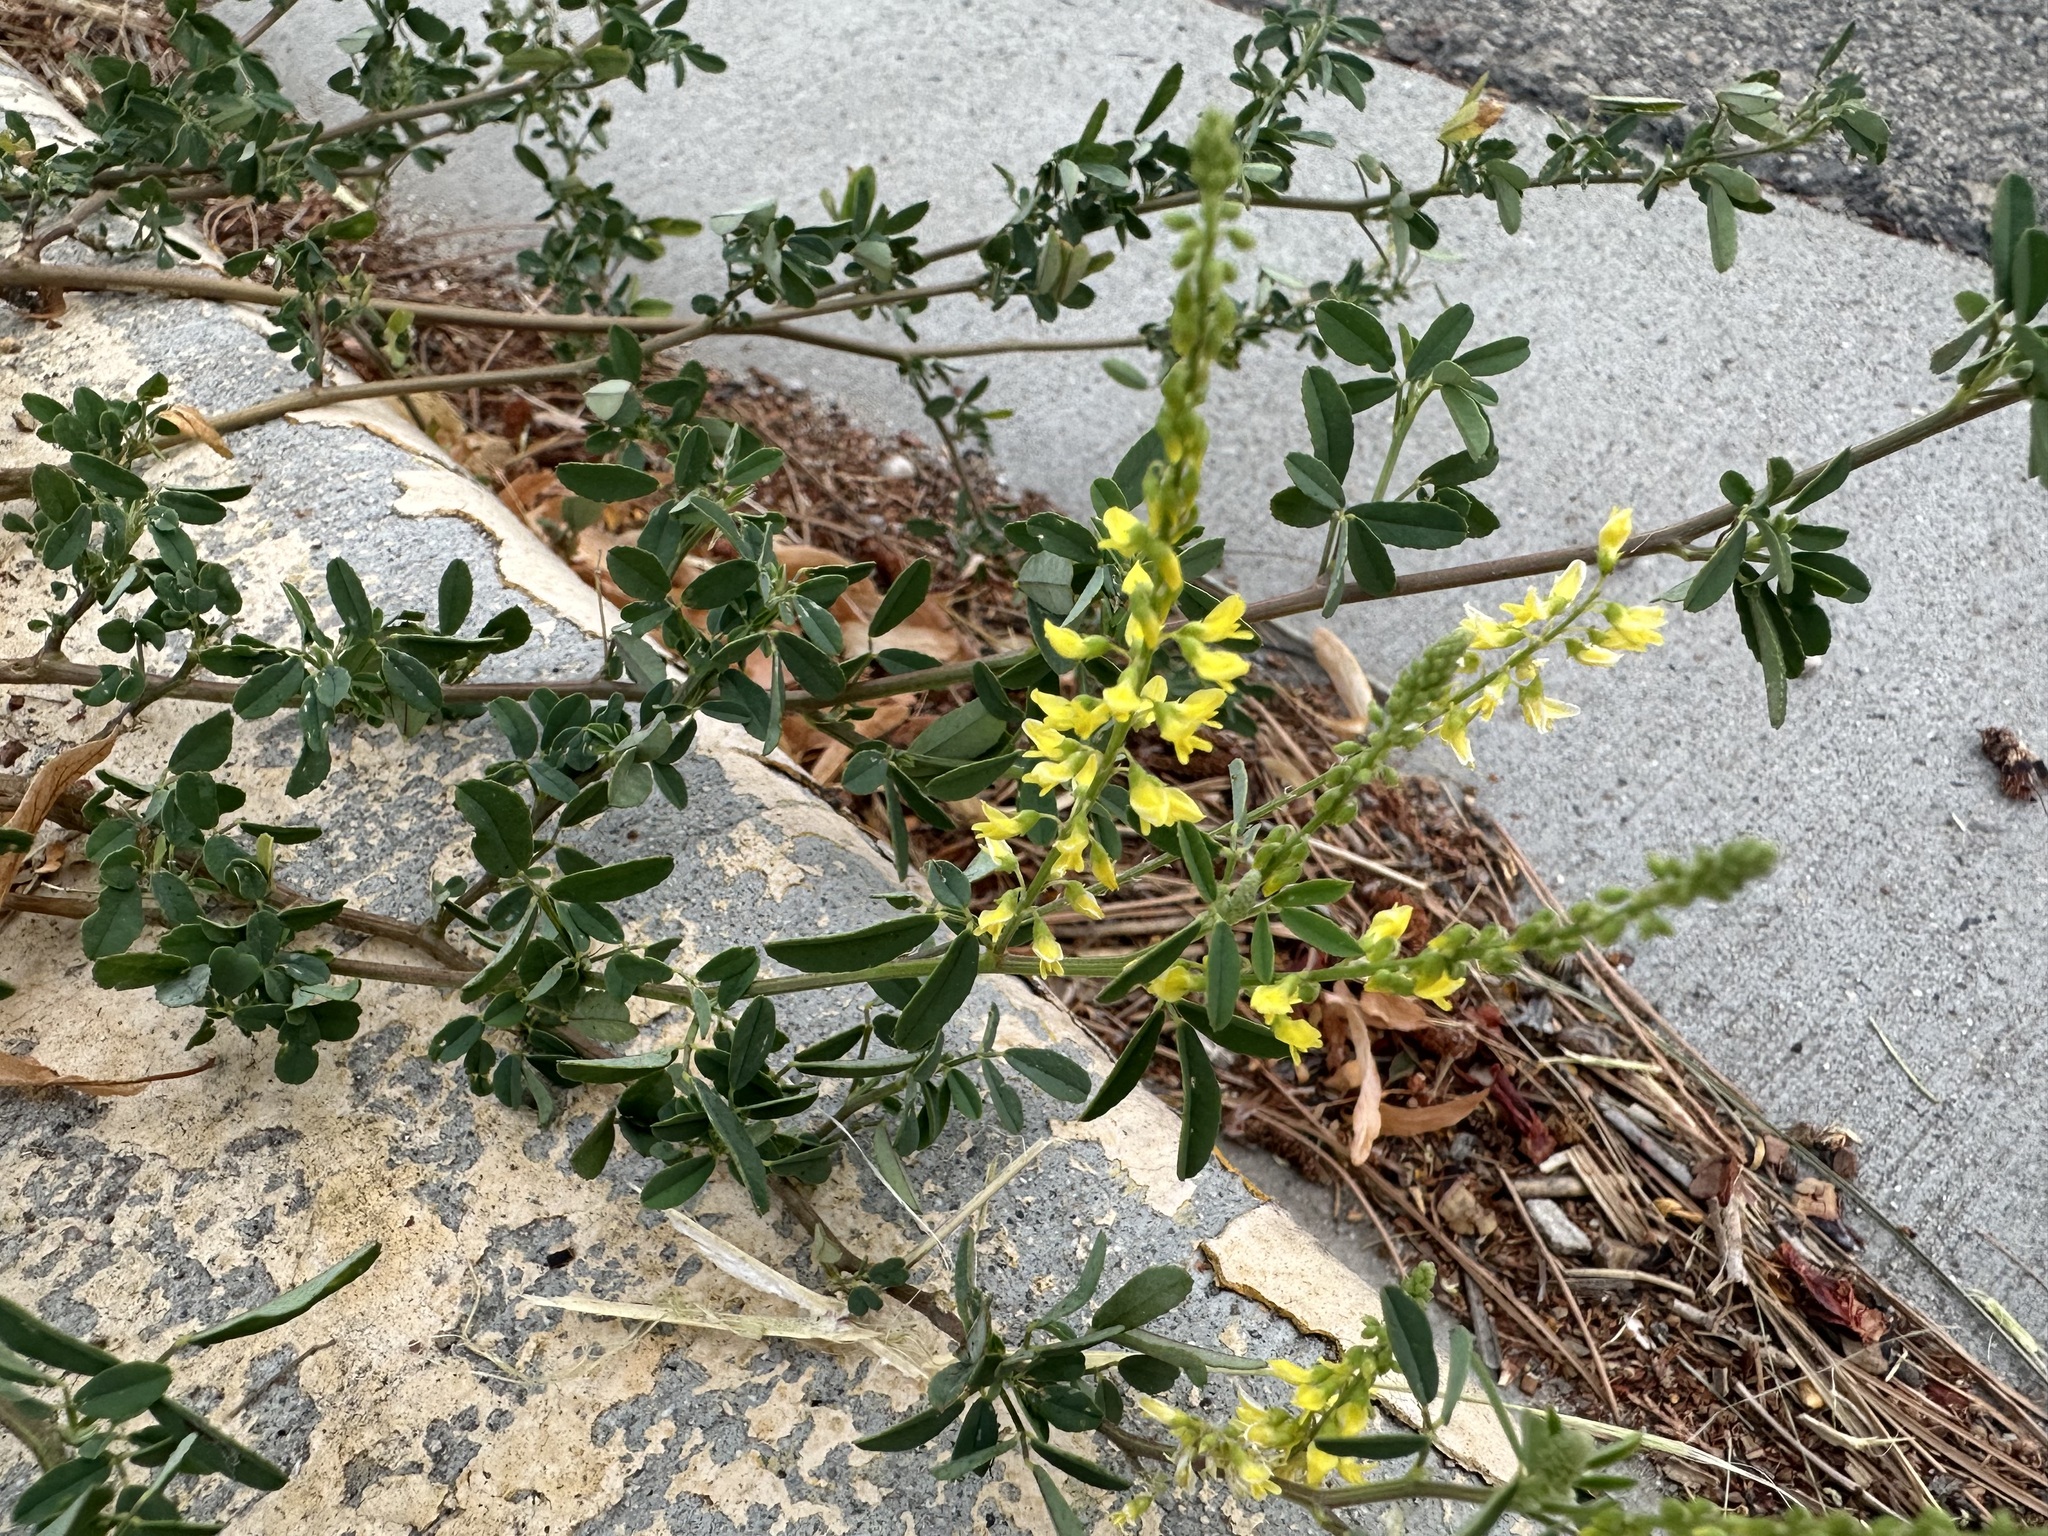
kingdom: Plantae
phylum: Tracheophyta
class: Magnoliopsida
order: Fabales
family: Fabaceae
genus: Melilotus
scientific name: Melilotus officinalis
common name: Sweetclover
